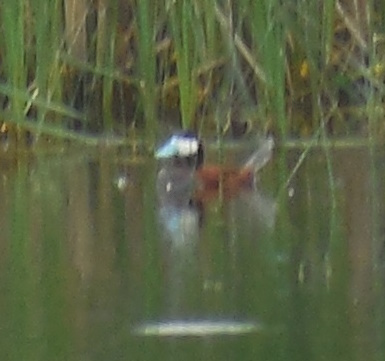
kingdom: Animalia
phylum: Chordata
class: Aves
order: Anseriformes
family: Anatidae
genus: Oxyura
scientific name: Oxyura jamaicensis
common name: Ruddy duck
